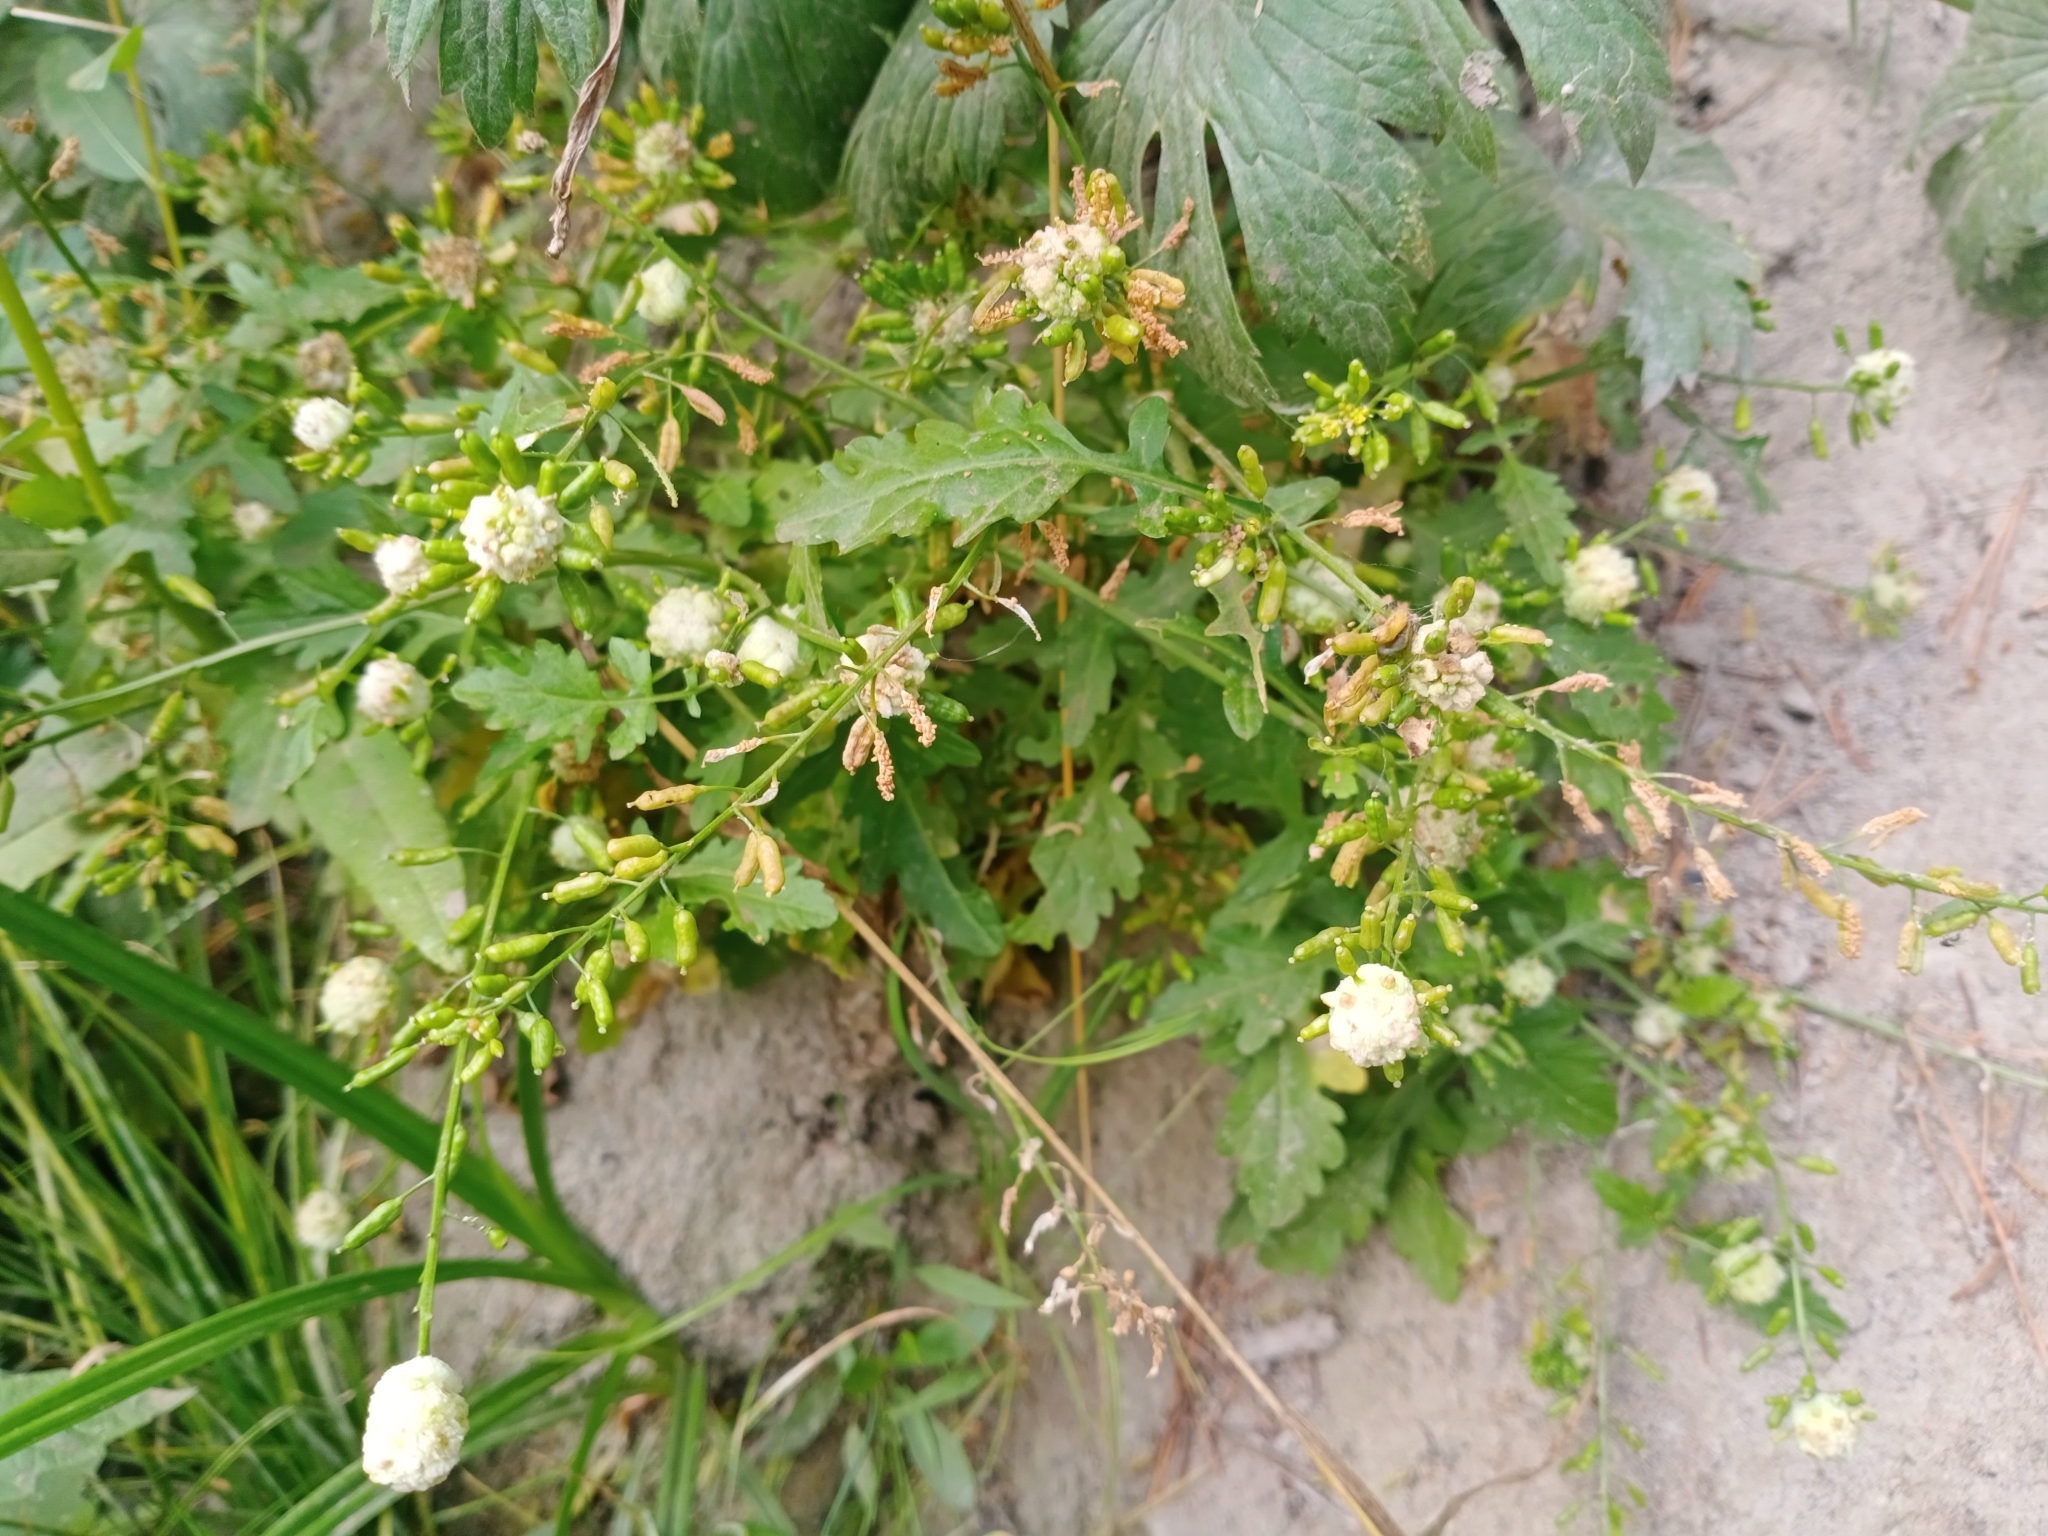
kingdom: Plantae
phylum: Tracheophyta
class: Magnoliopsida
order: Brassicales
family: Brassicaceae
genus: Rorippa
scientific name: Rorippa palustris
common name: Marsh yellow-cress
